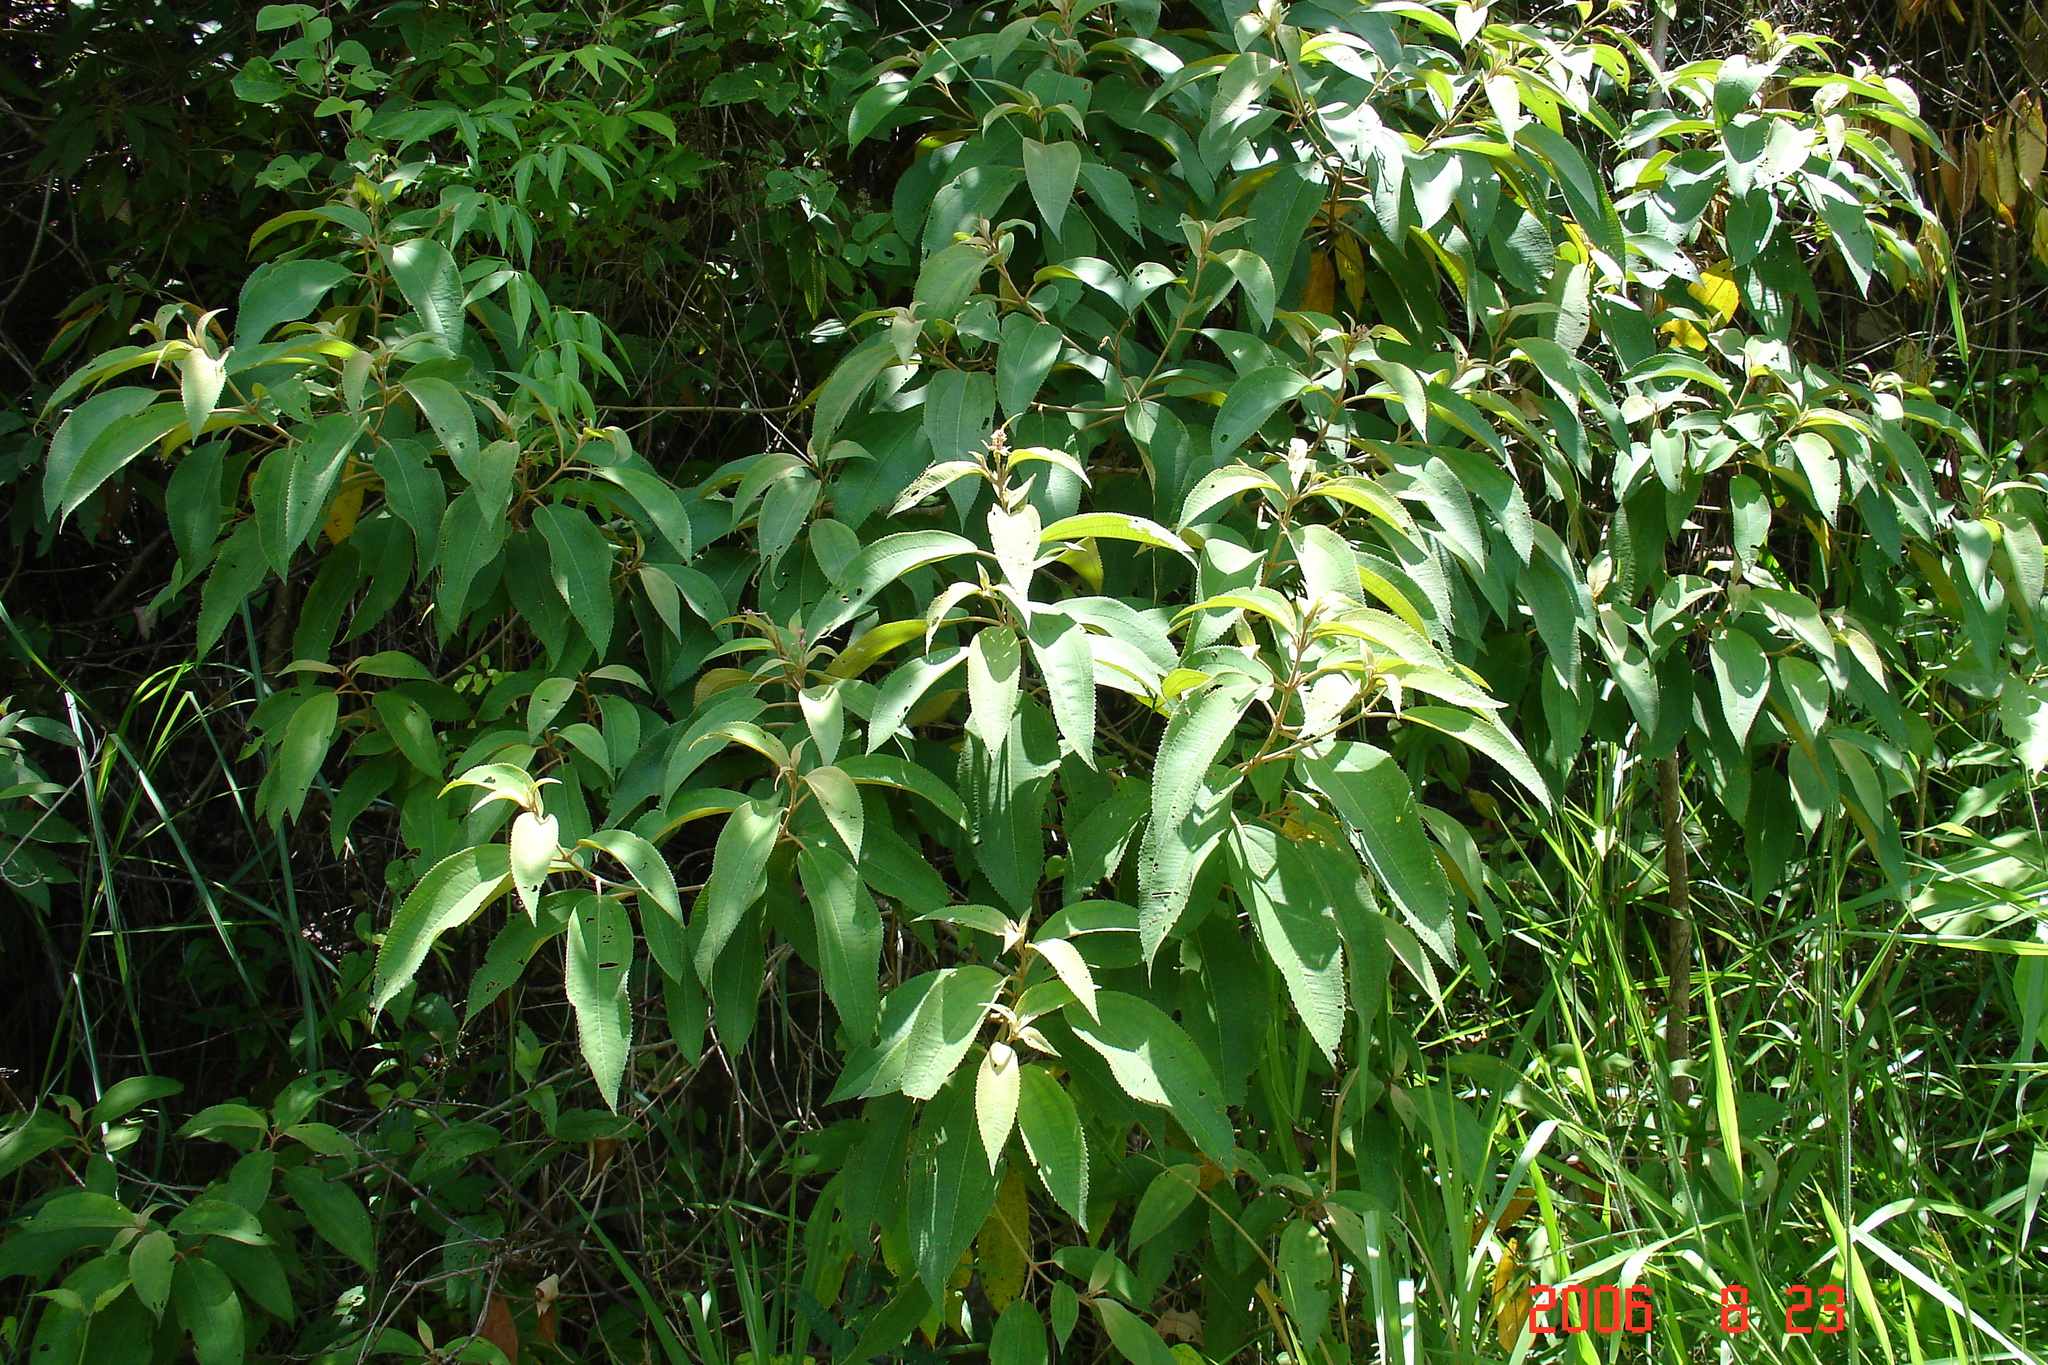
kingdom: Plantae
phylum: Tracheophyta
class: Magnoliopsida
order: Myrtales
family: Melastomataceae
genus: Miconia
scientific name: Miconia xalapensis
